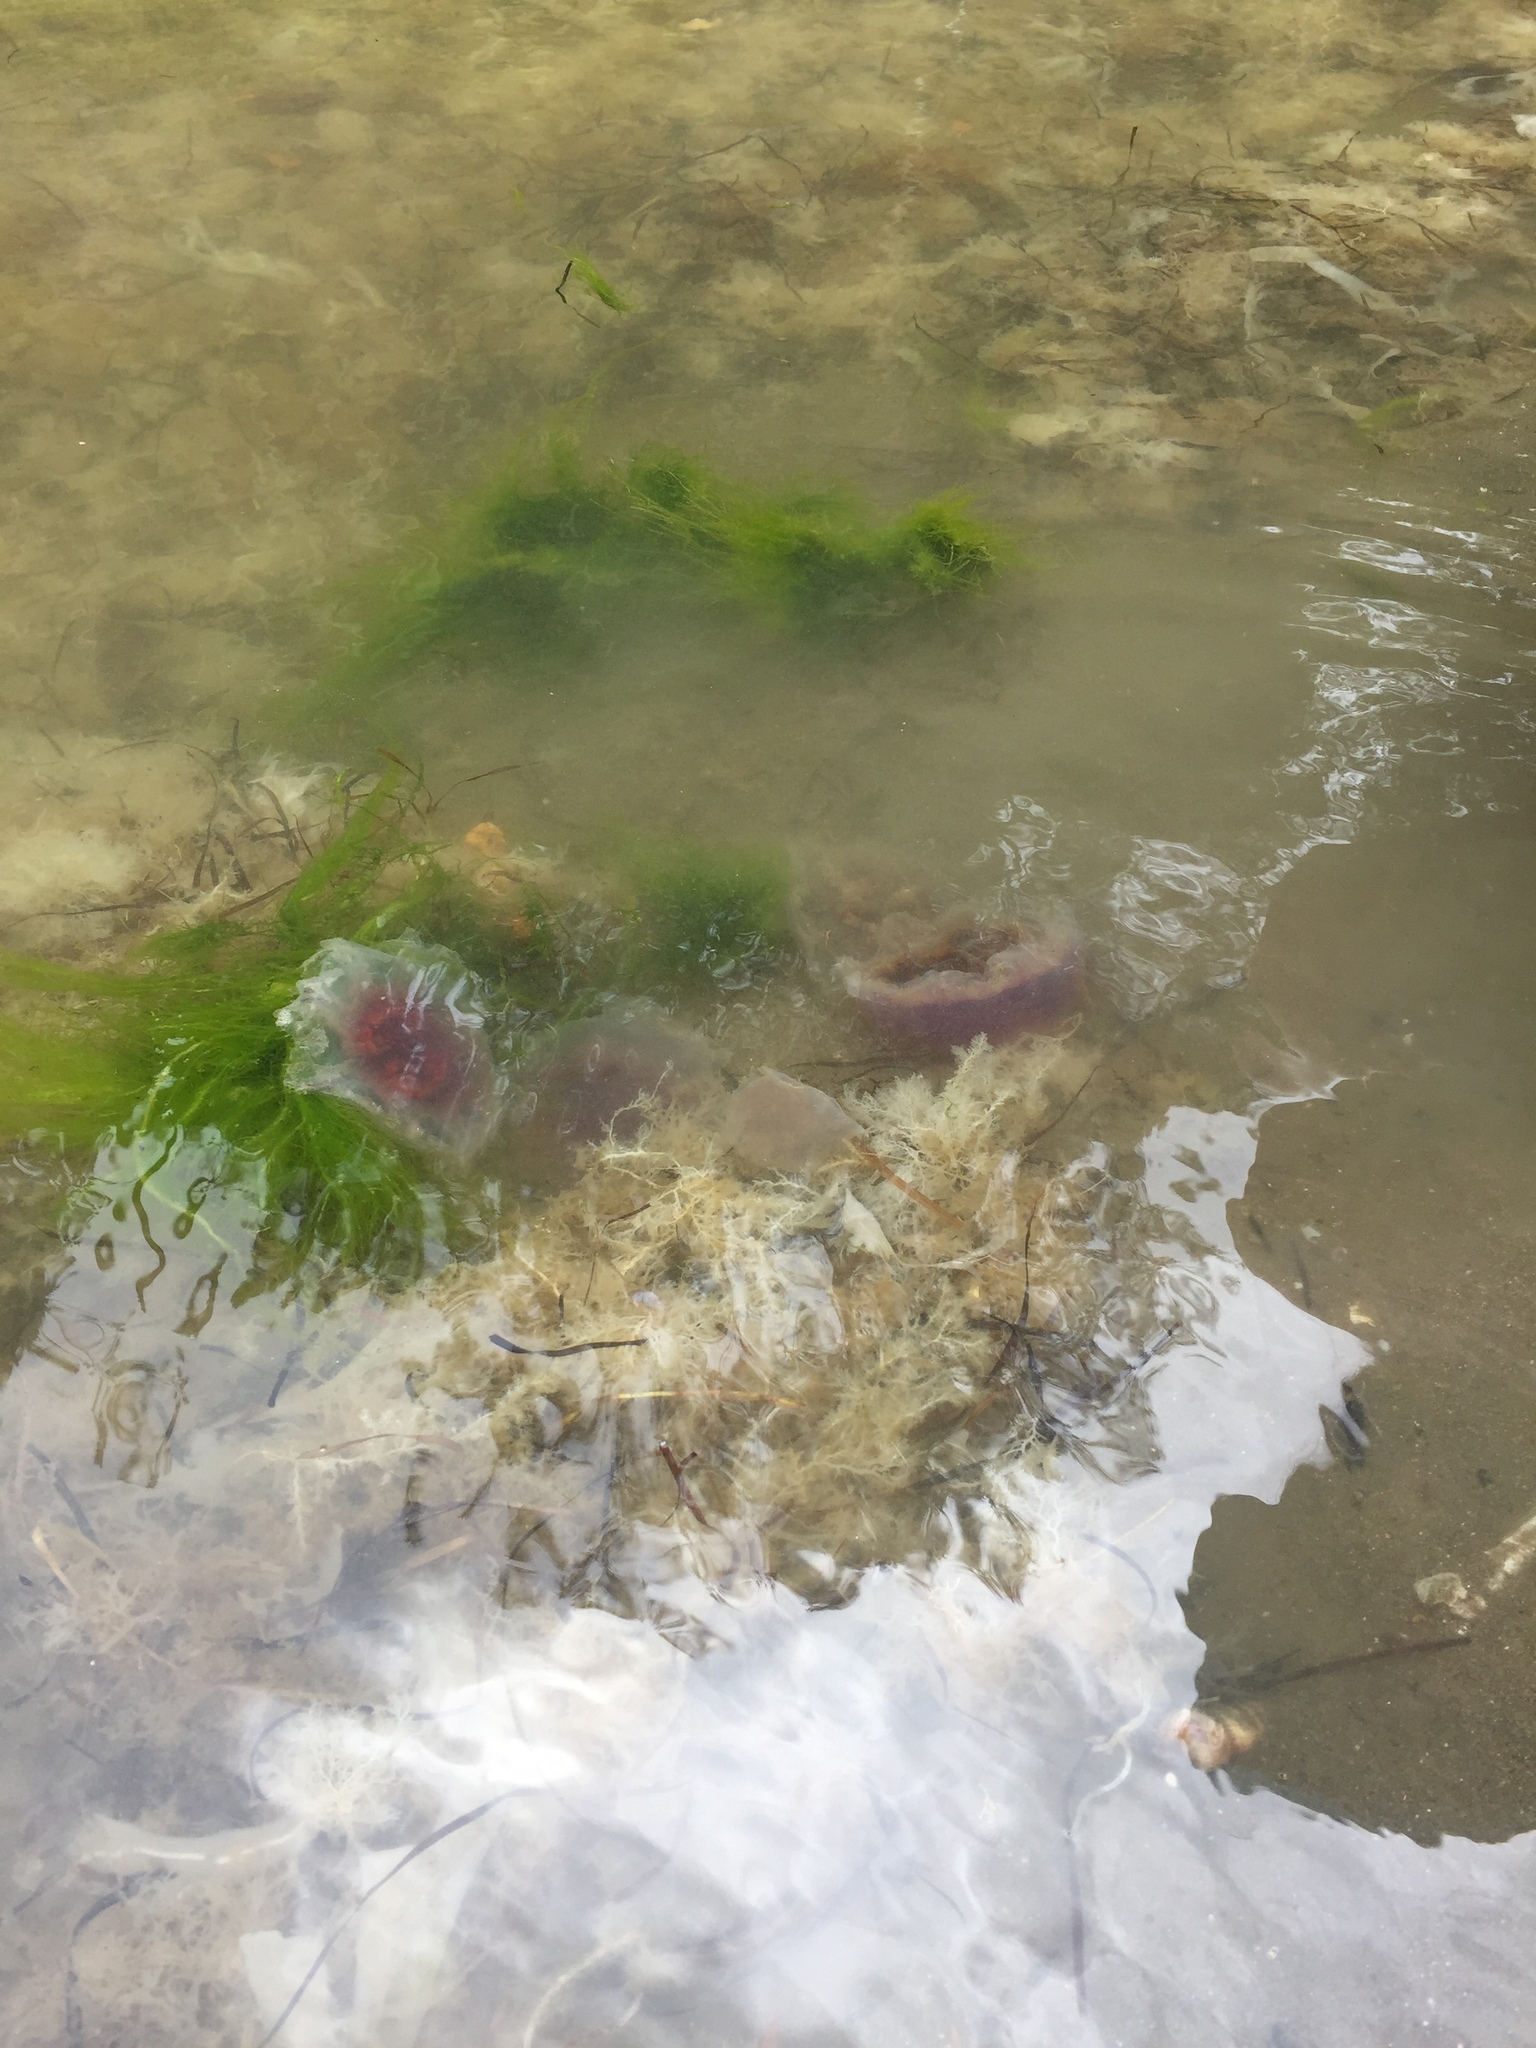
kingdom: Animalia
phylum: Cnidaria
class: Scyphozoa
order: Semaeostomeae
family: Cyaneidae
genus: Cyanea
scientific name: Cyanea
